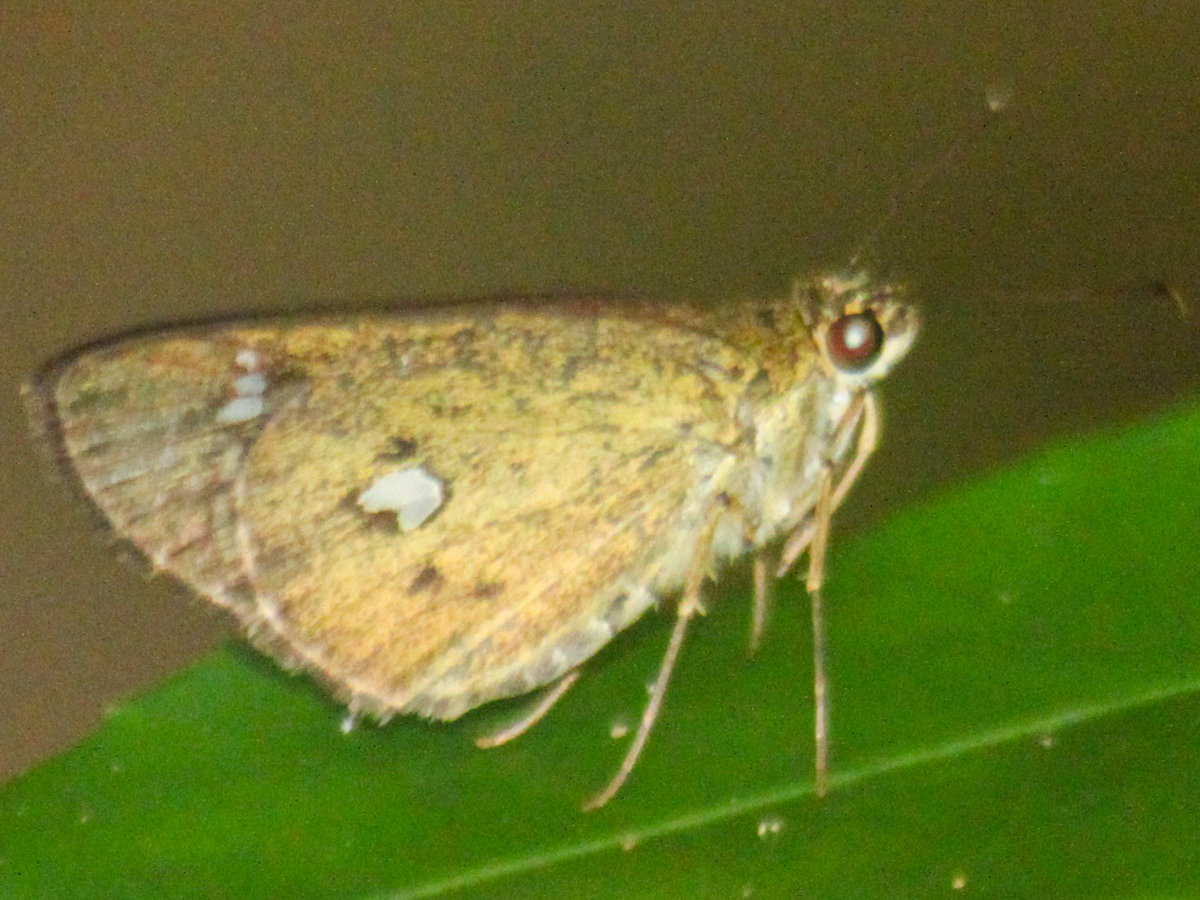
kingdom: Animalia
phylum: Arthropoda
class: Insecta
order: Lepidoptera
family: Hesperiidae
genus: Scobura
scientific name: Scobura phiditia
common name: Malay forest bob
